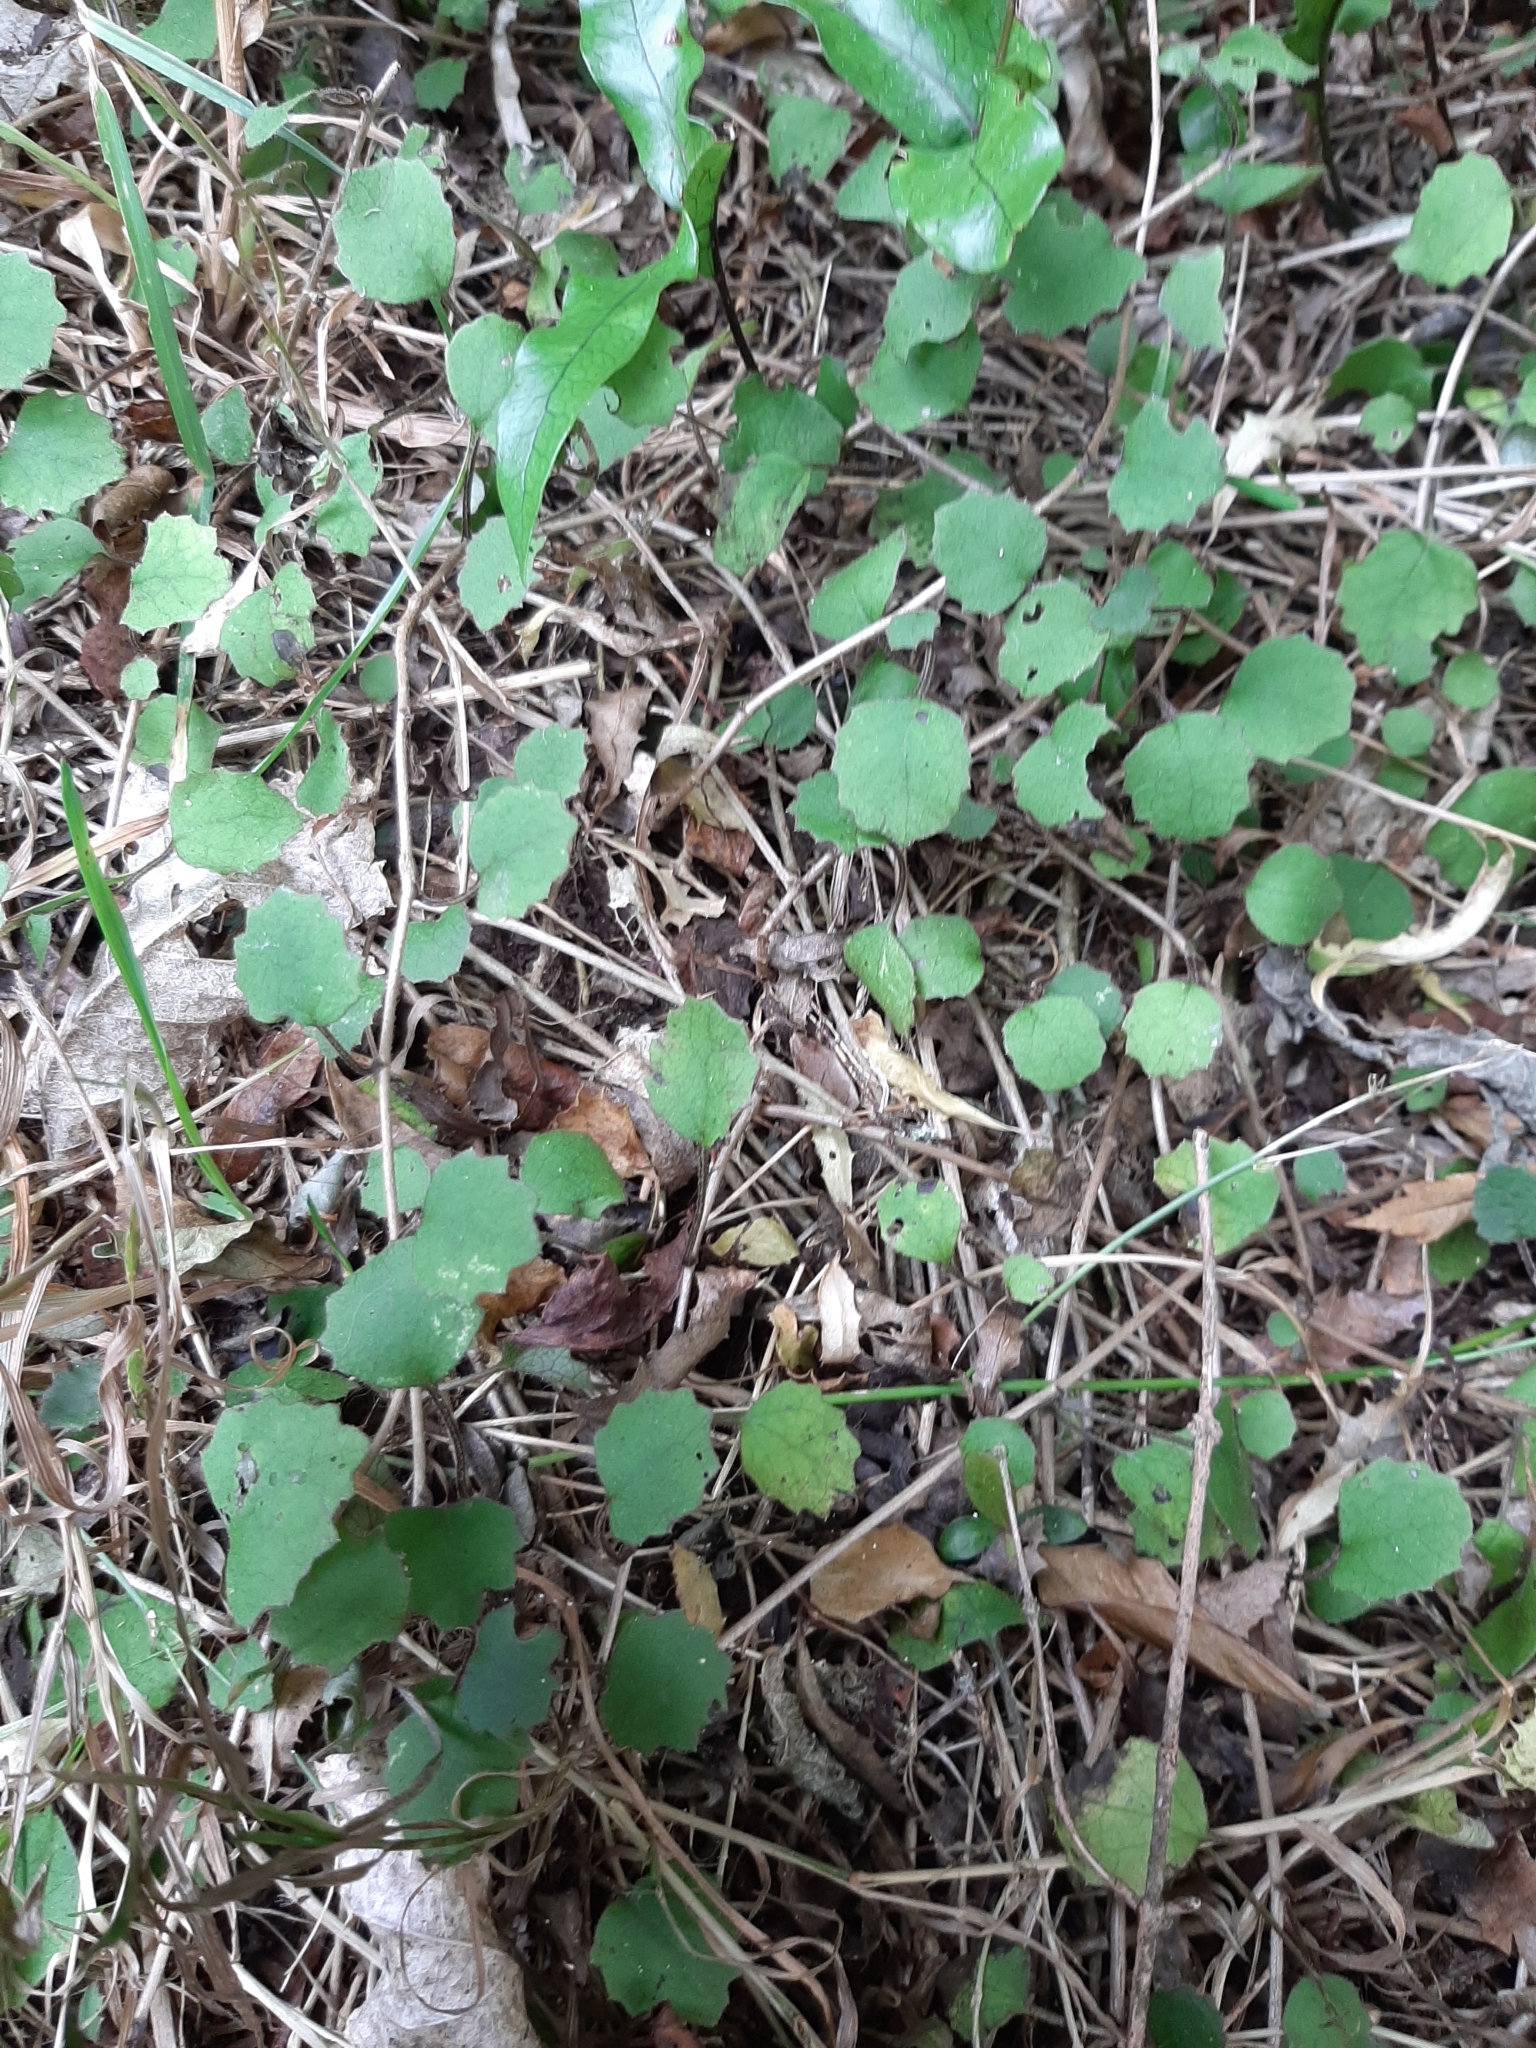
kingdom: Plantae
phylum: Tracheophyta
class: Magnoliopsida
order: Asterales
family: Asteraceae
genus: Brachyglottis
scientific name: Brachyglottis sciadophila
